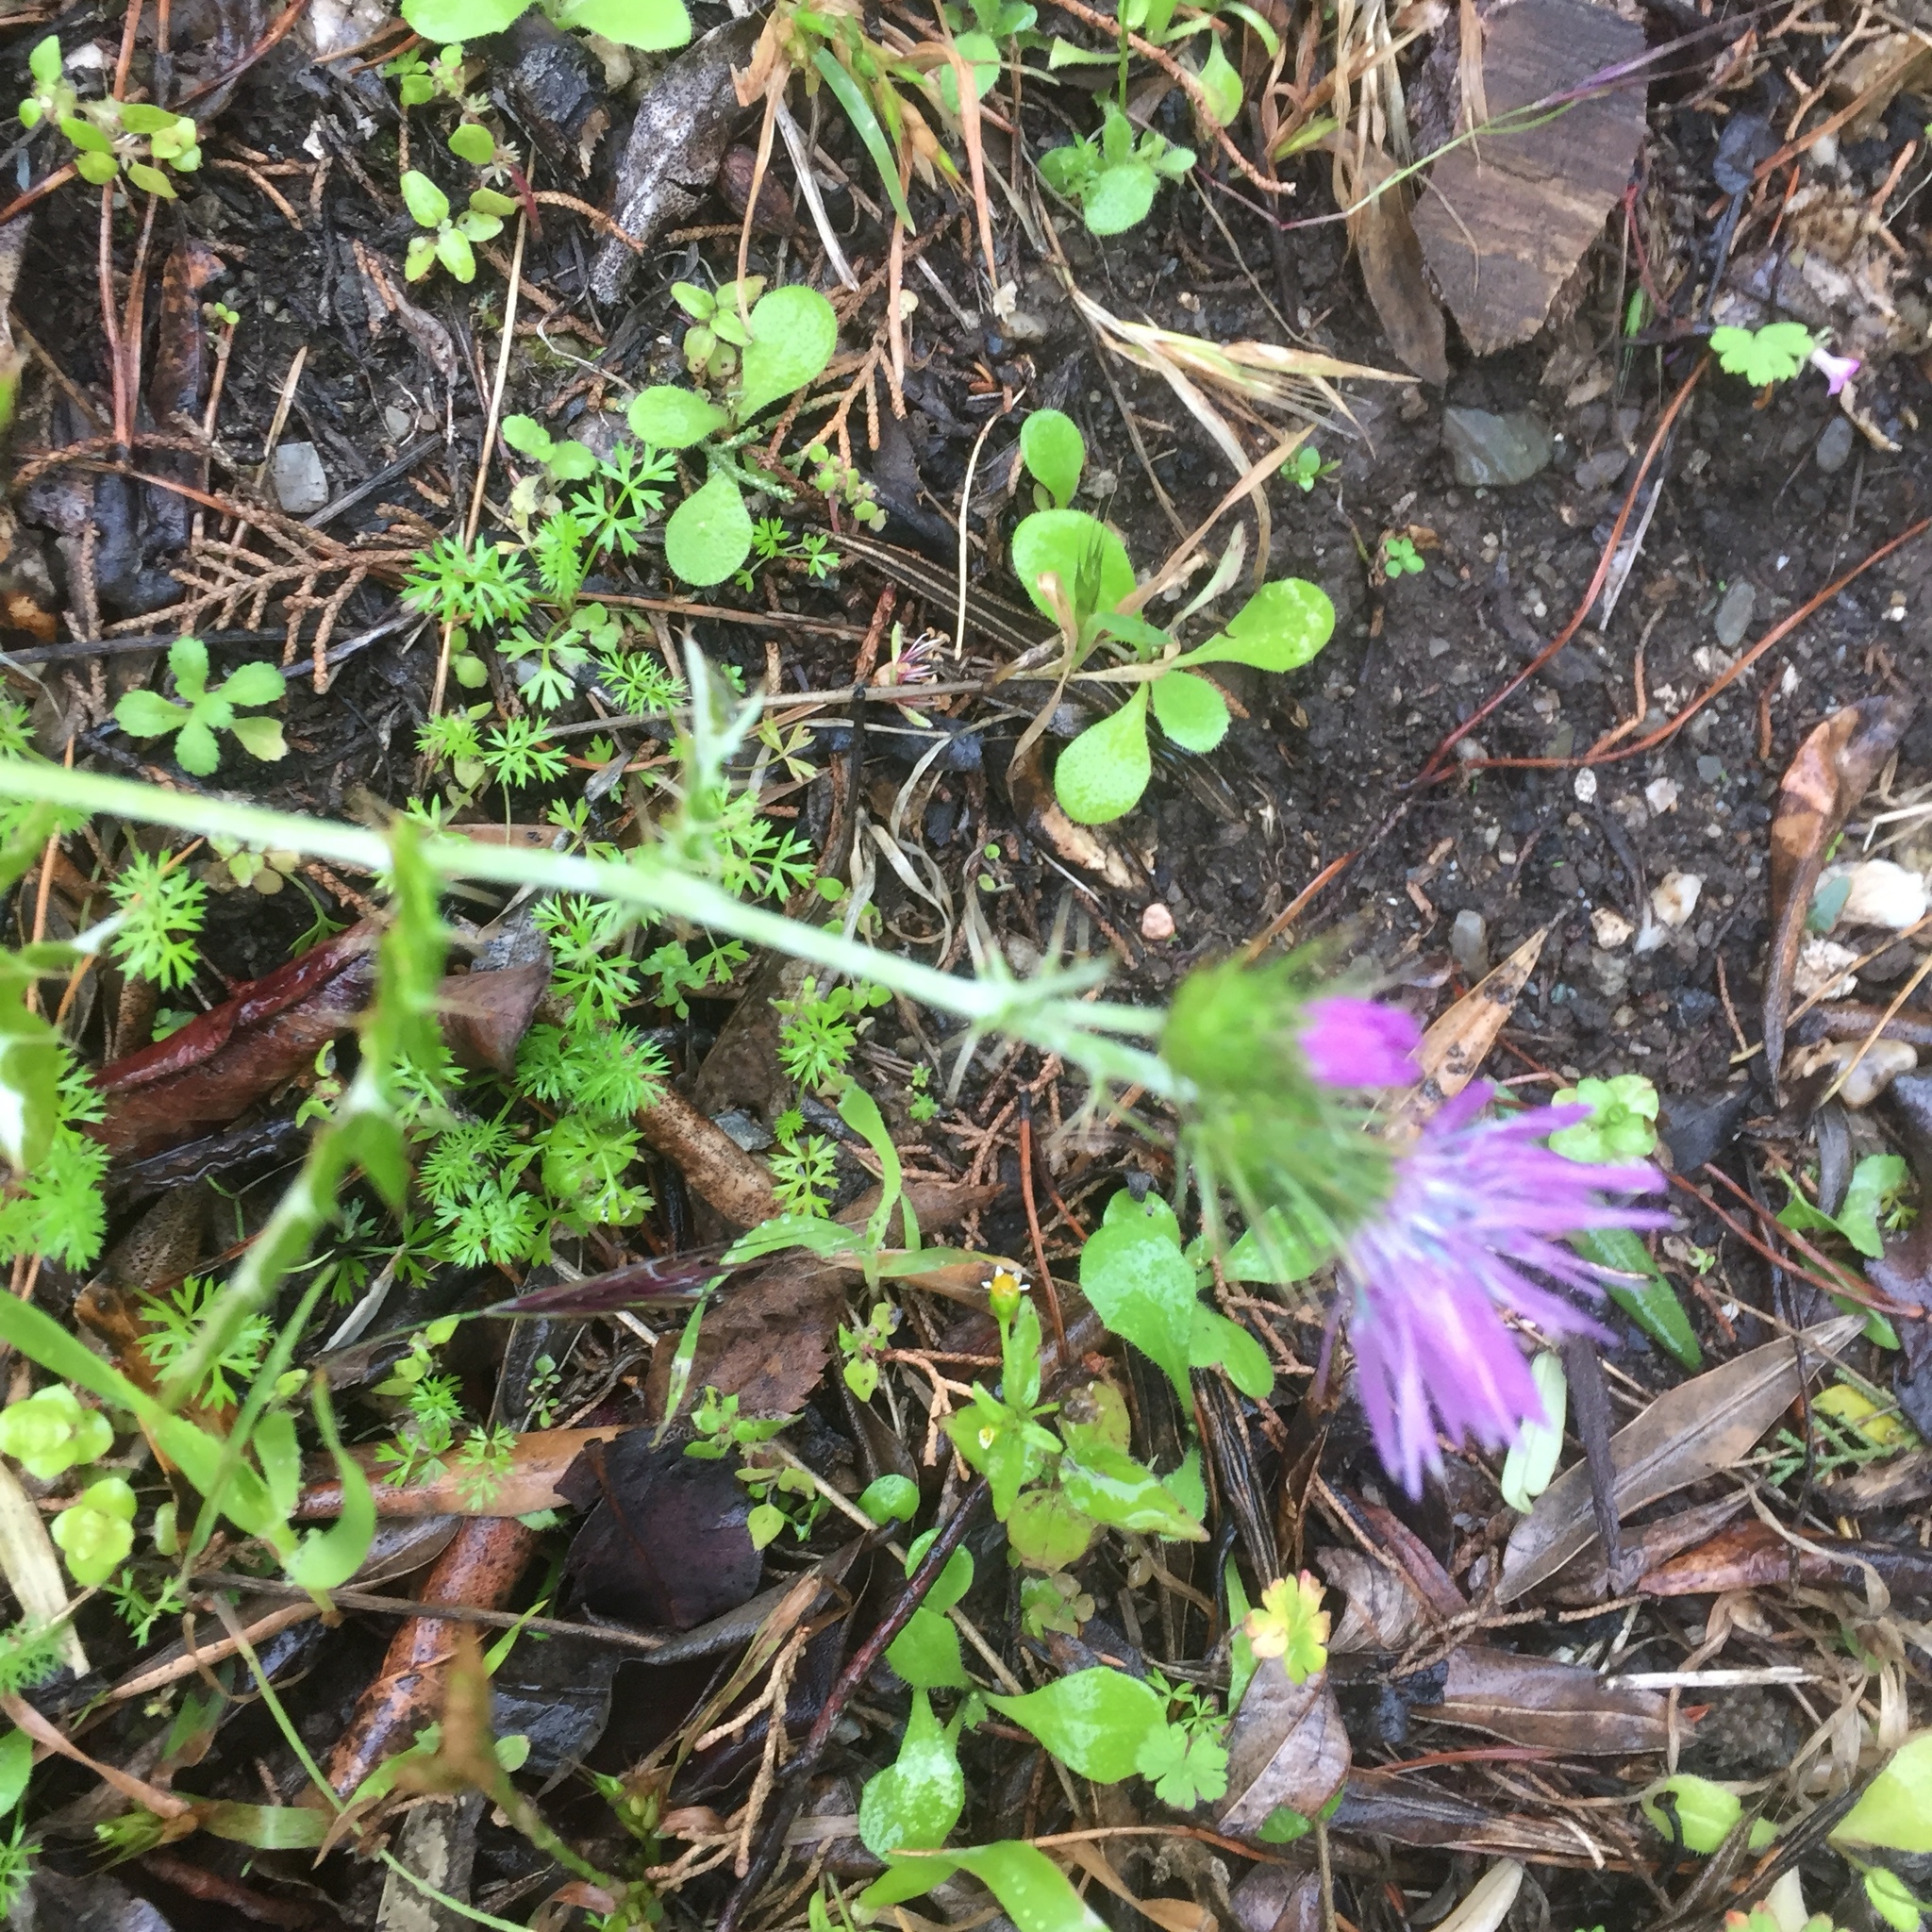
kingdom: Plantae
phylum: Tracheophyta
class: Magnoliopsida
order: Asterales
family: Asteraceae
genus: Galactites
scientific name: Galactites tomentosa
